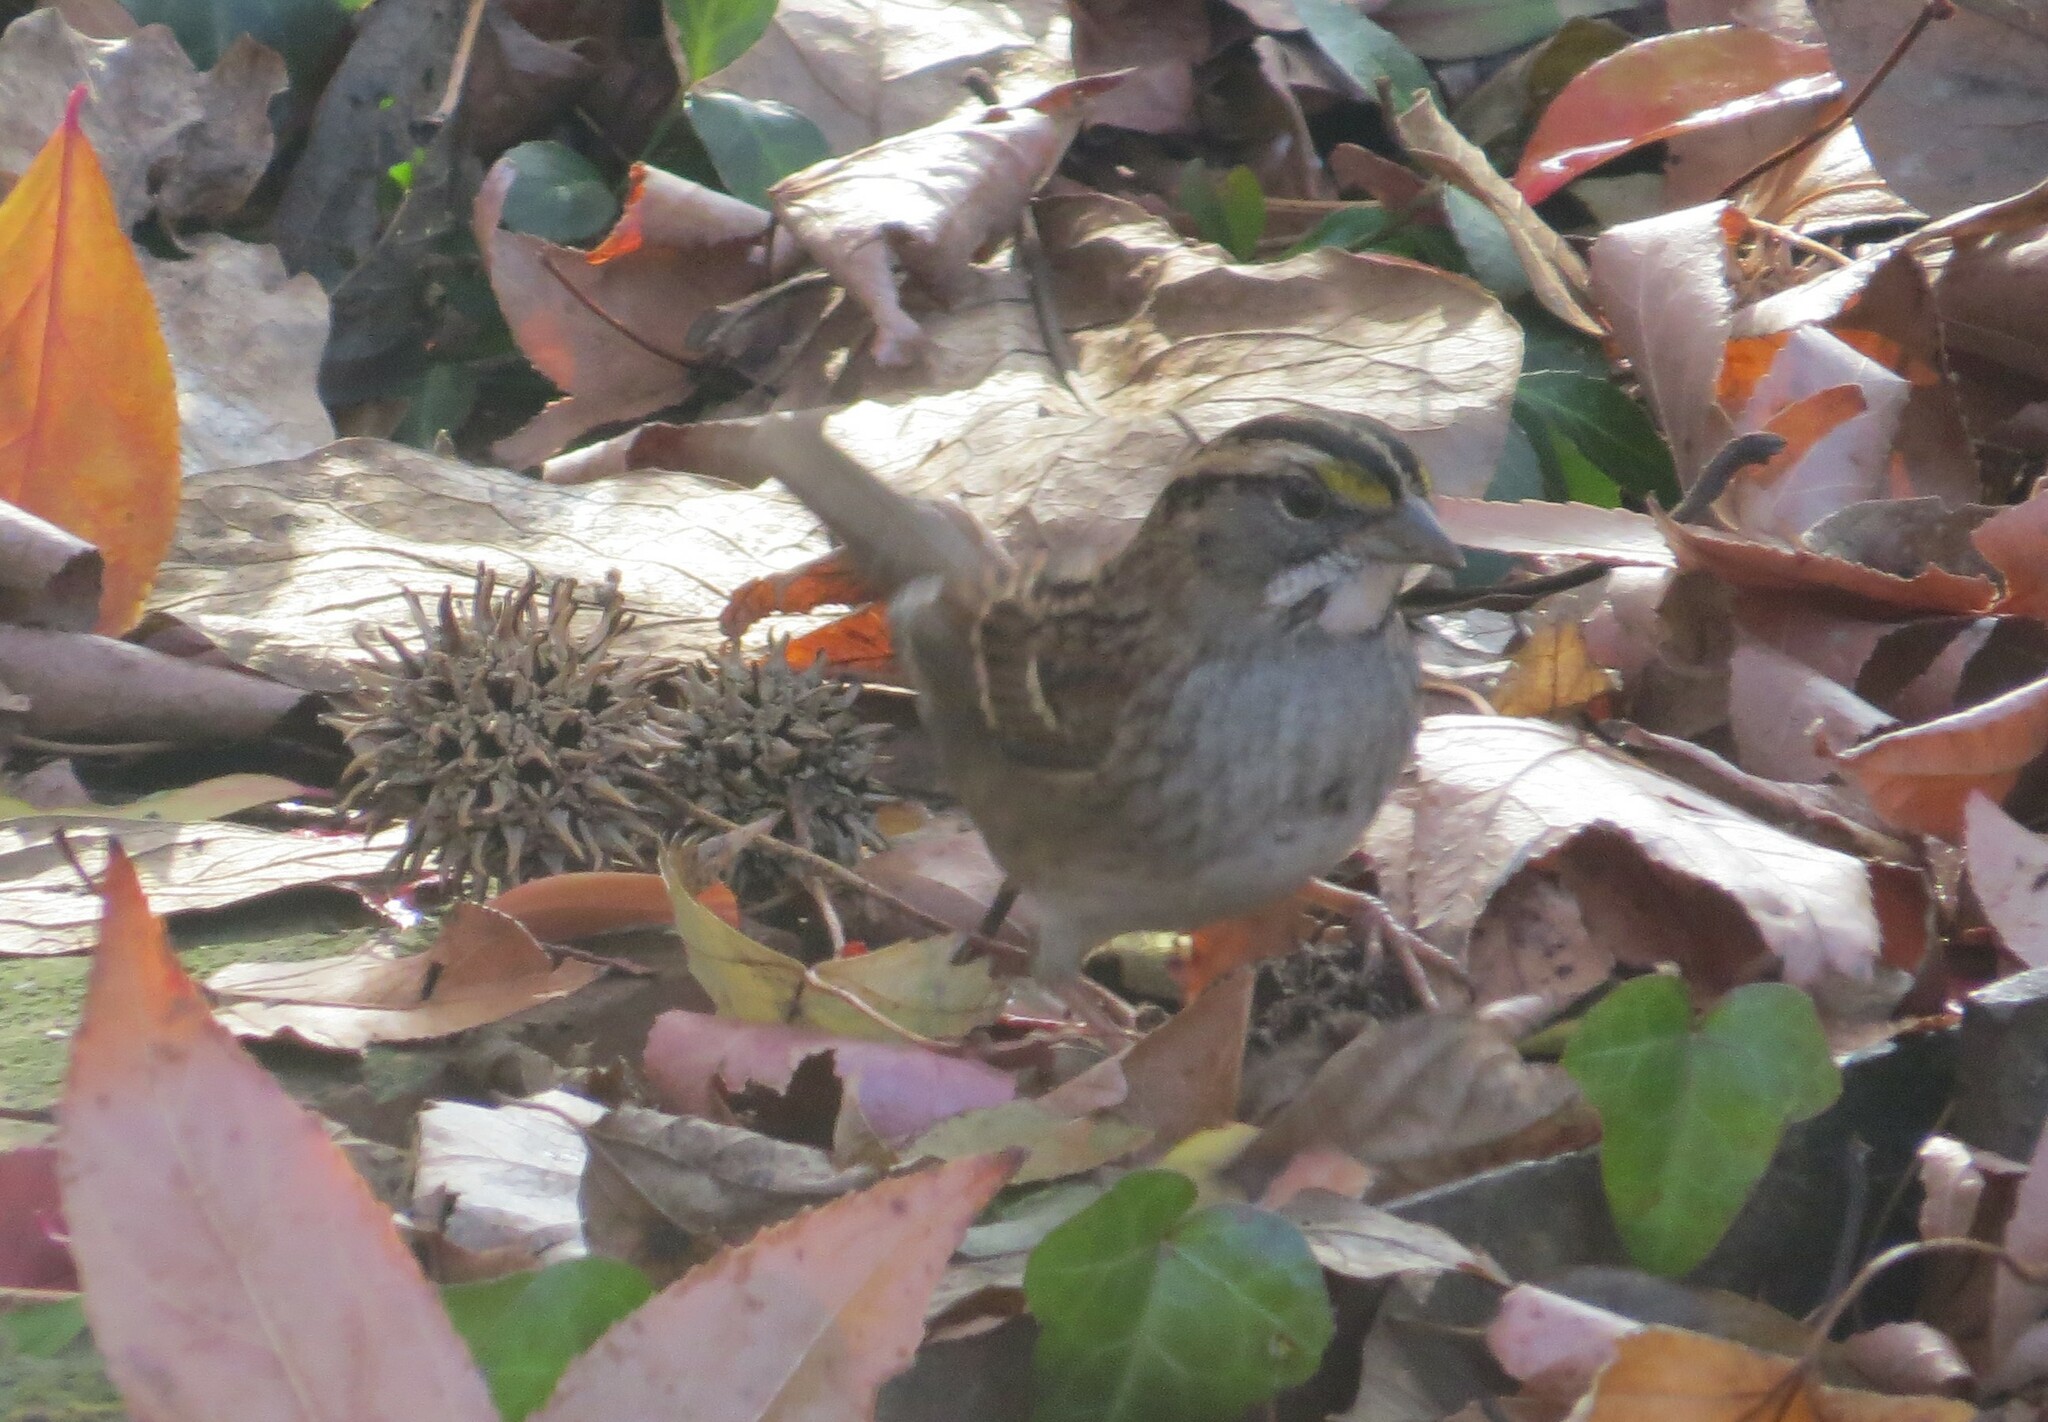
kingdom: Animalia
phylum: Chordata
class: Aves
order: Passeriformes
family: Passerellidae
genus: Zonotrichia
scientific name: Zonotrichia albicollis
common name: White-throated sparrow
